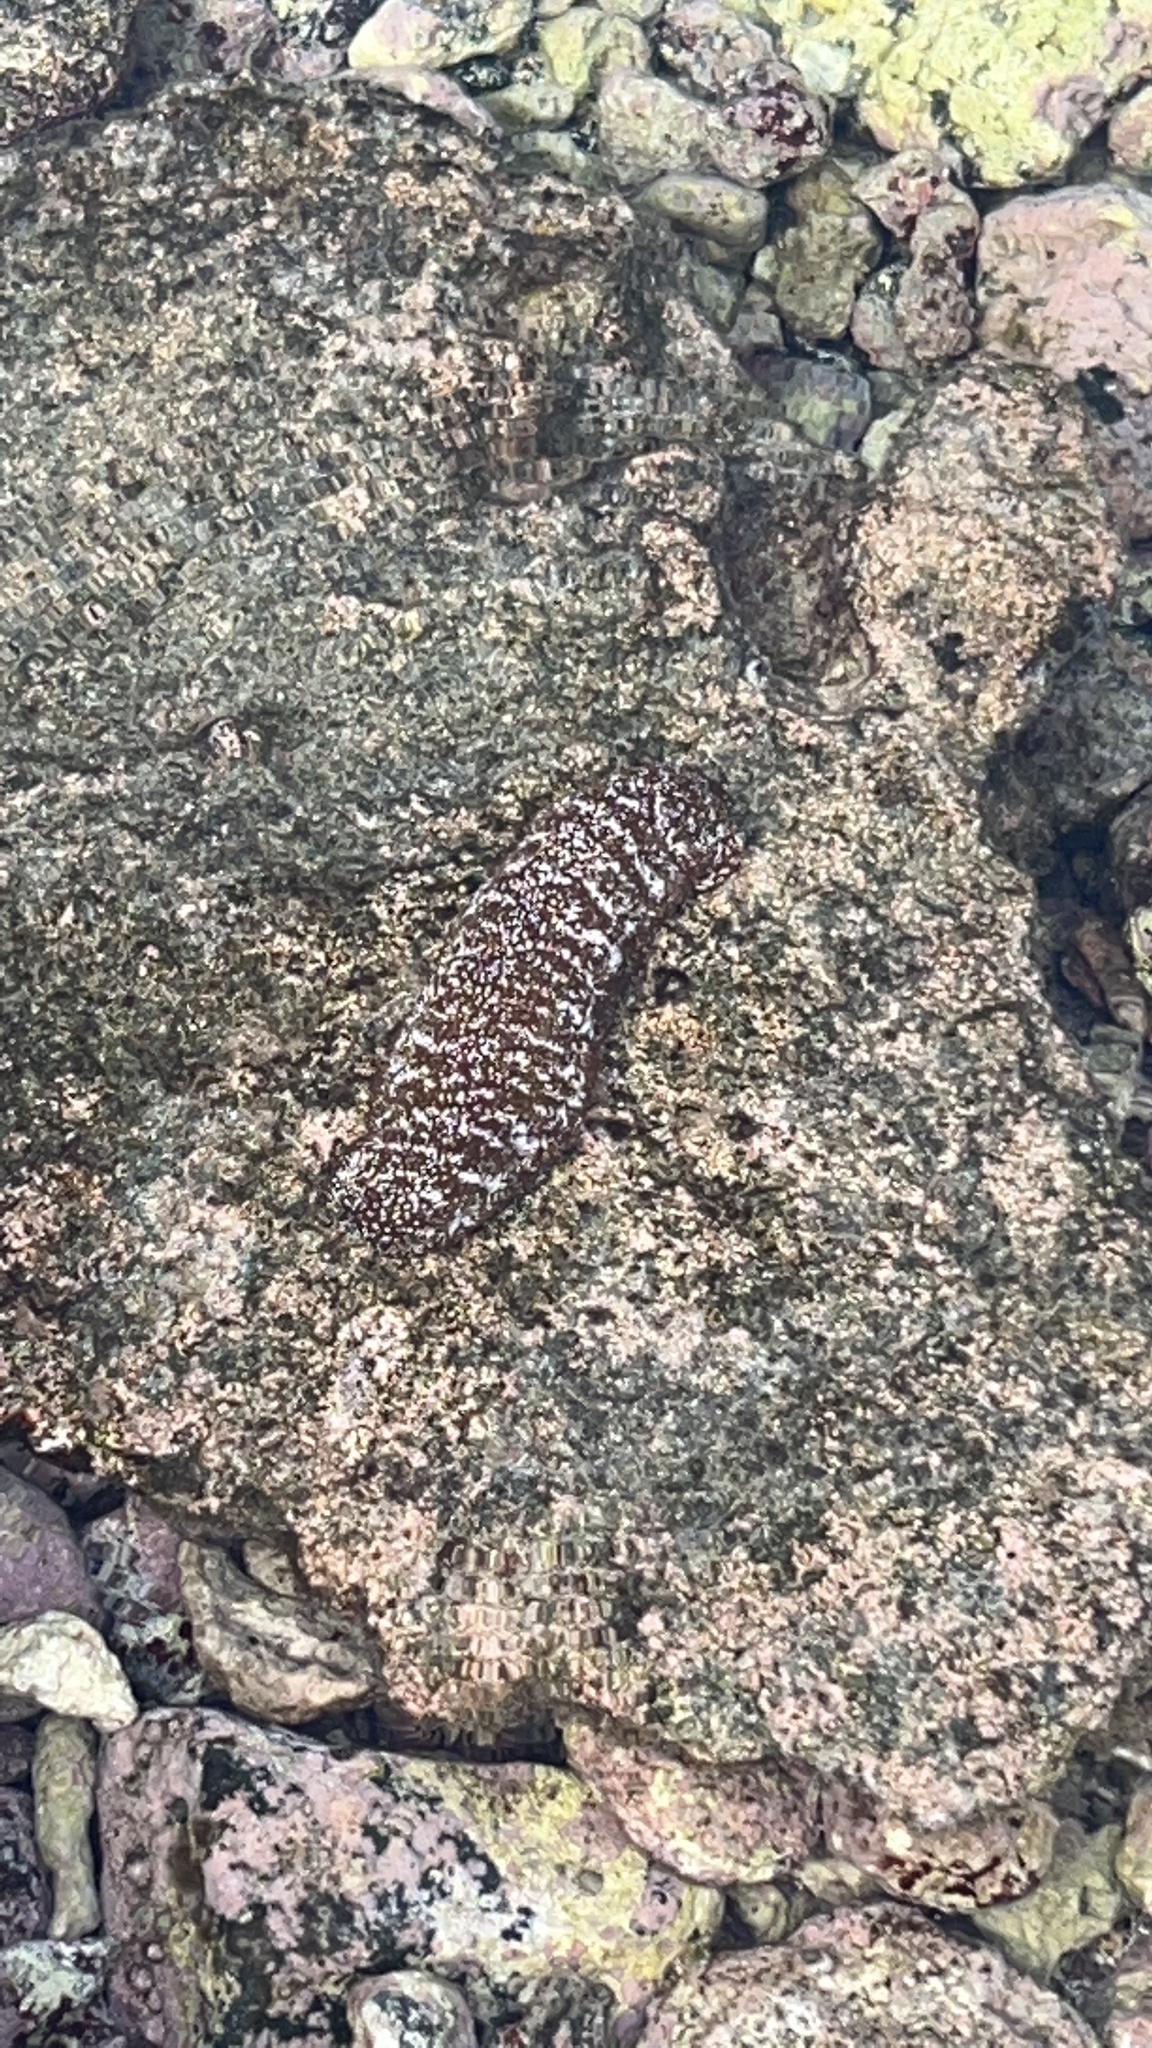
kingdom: Animalia
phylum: Echinodermata
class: Holothuroidea
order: Holothuriida
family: Holothuriidae
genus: Actinopyga
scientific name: Actinopyga varians
